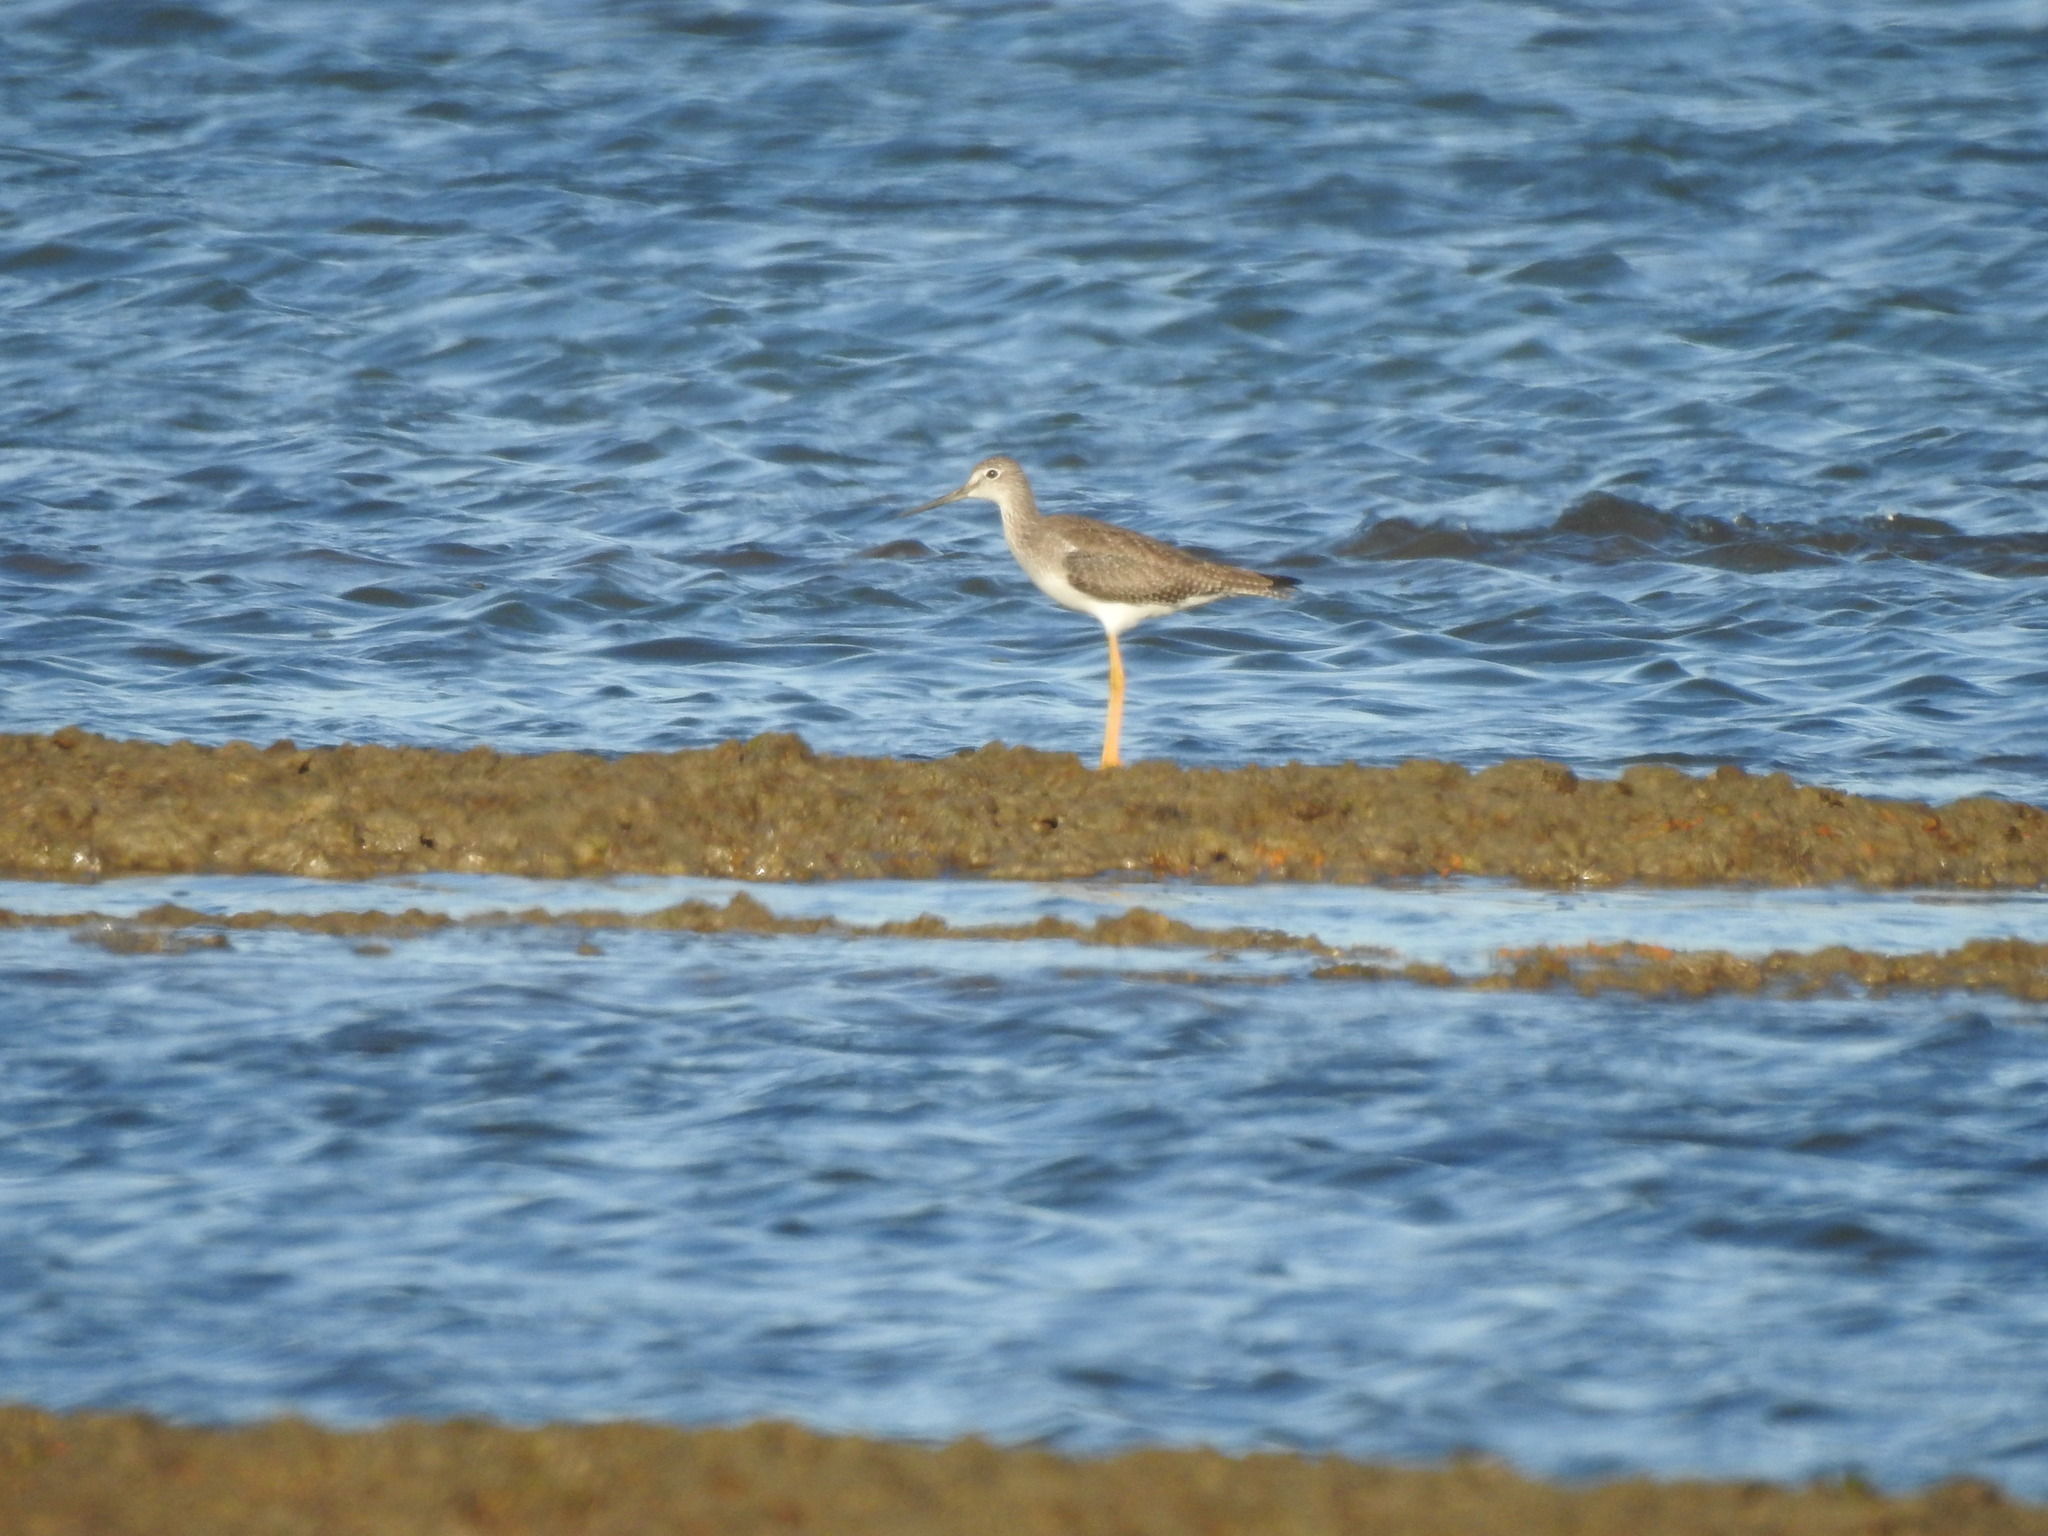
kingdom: Animalia
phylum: Chordata
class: Aves
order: Charadriiformes
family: Scolopacidae
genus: Tringa
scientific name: Tringa melanoleuca
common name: Greater yellowlegs
